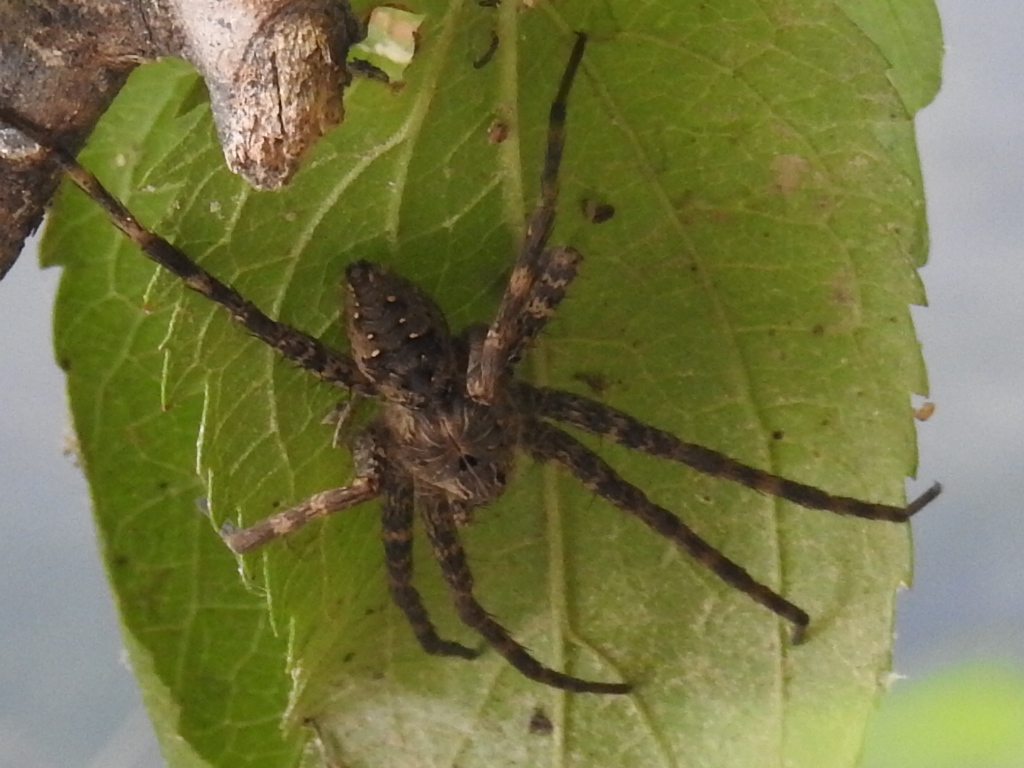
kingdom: Animalia
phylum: Arthropoda
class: Arachnida
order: Araneae
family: Pisauridae
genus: Dolomedes
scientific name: Dolomedes vittatus
